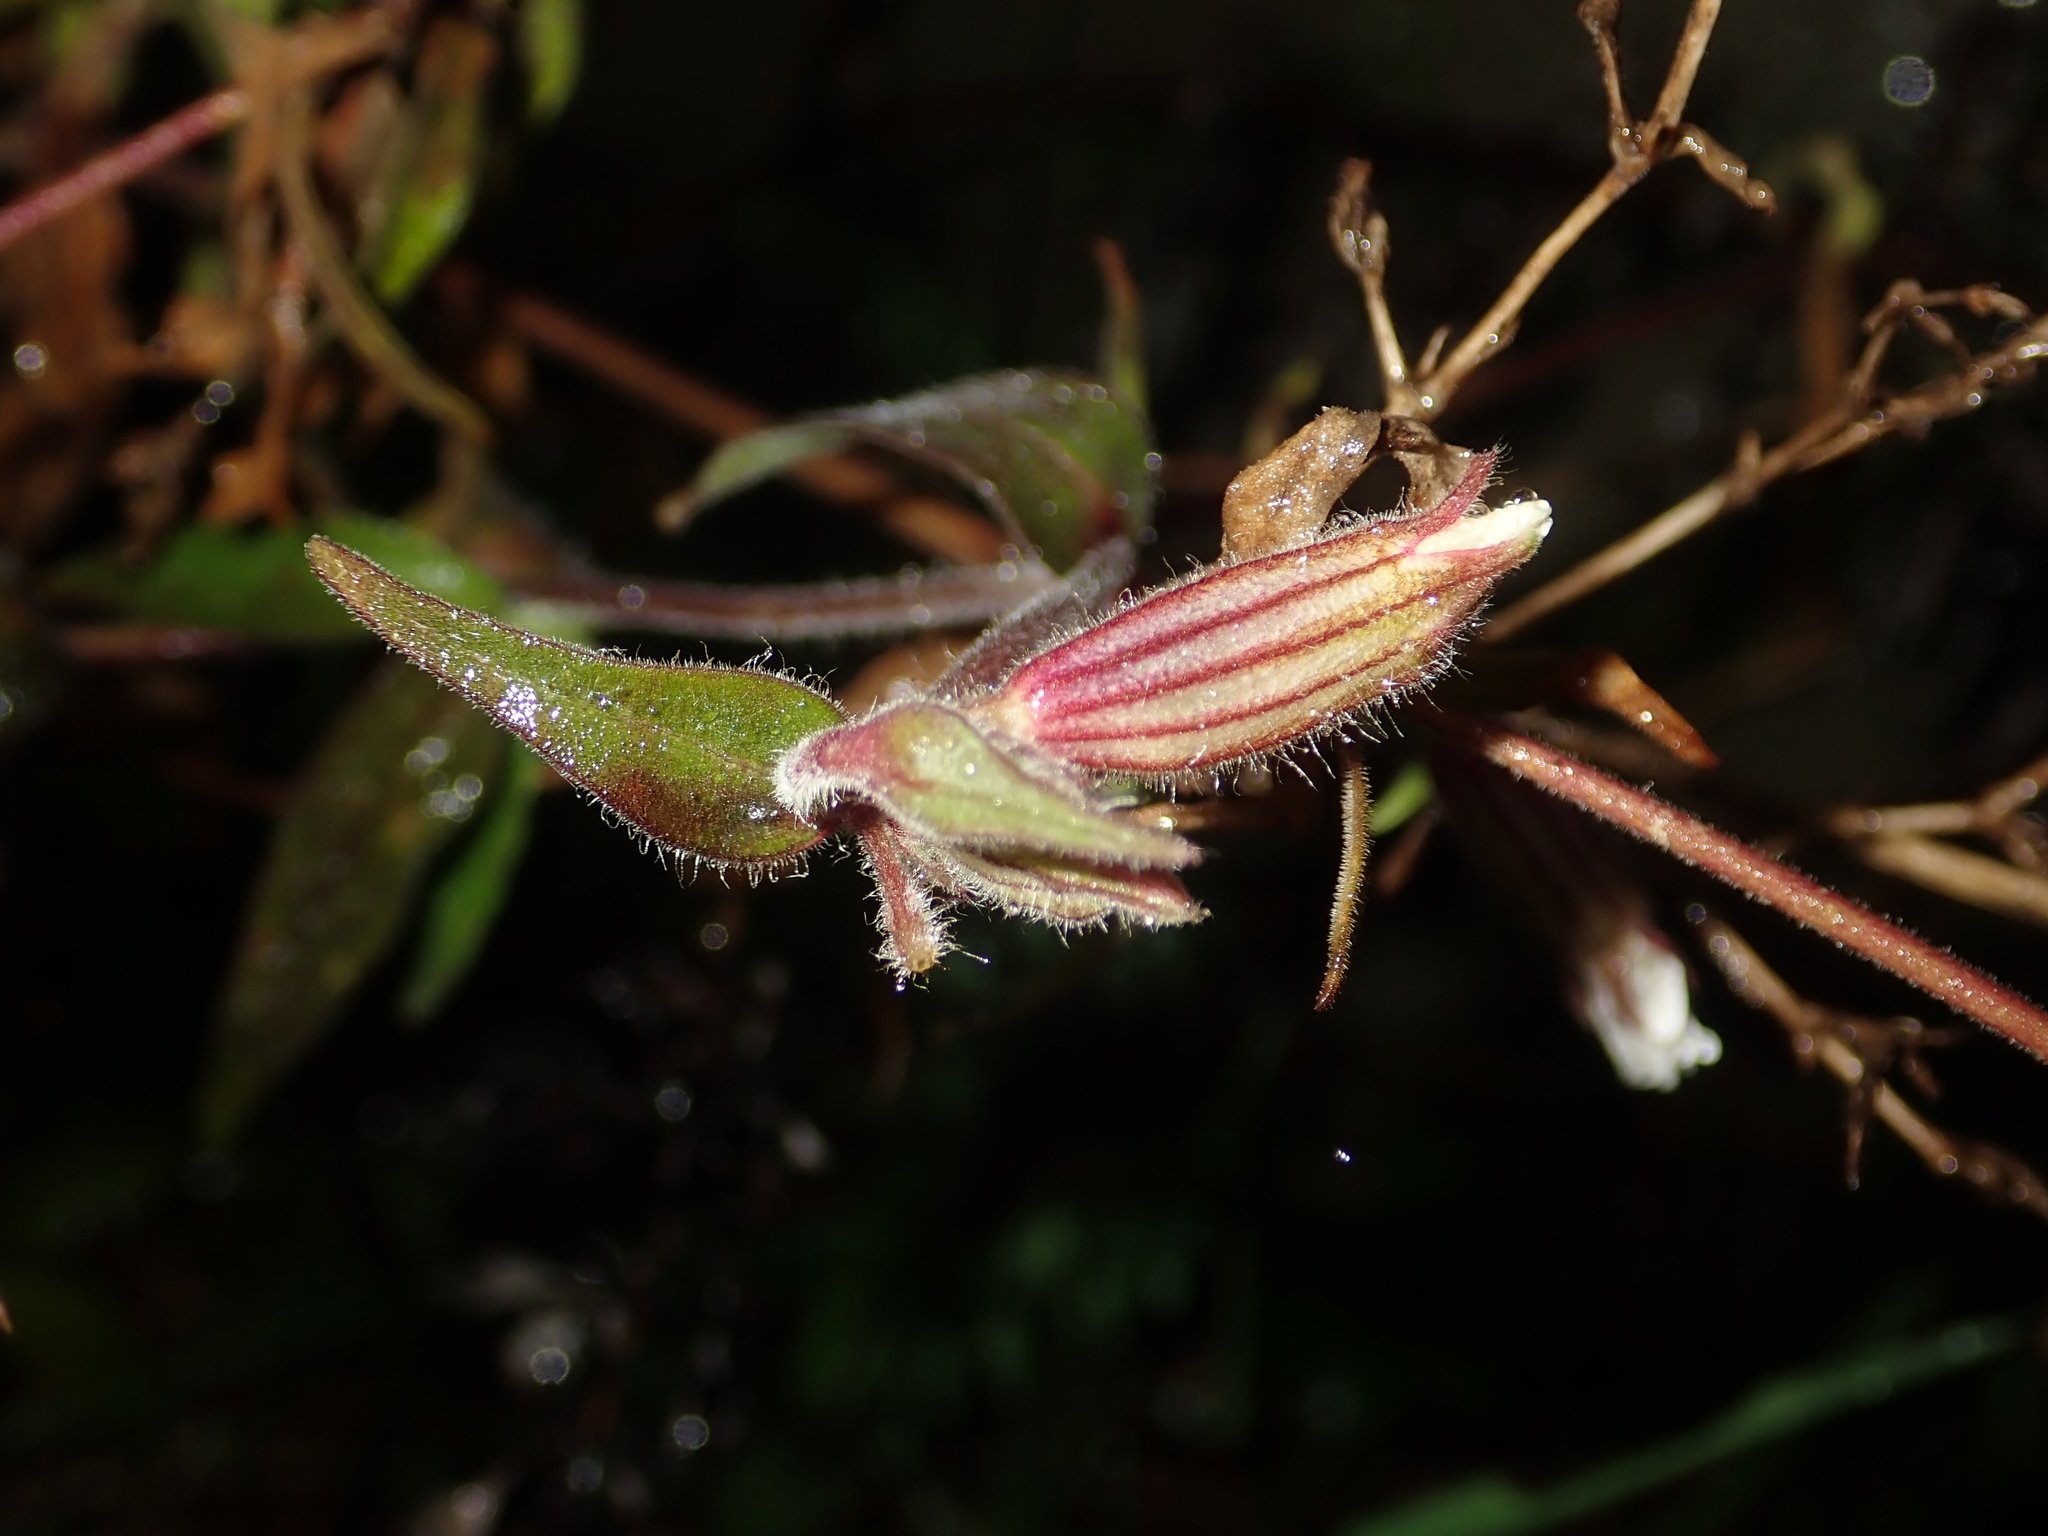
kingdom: Plantae
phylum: Tracheophyta
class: Magnoliopsida
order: Caryophyllales
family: Caryophyllaceae
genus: Silene
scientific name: Silene latifolia
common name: White campion
